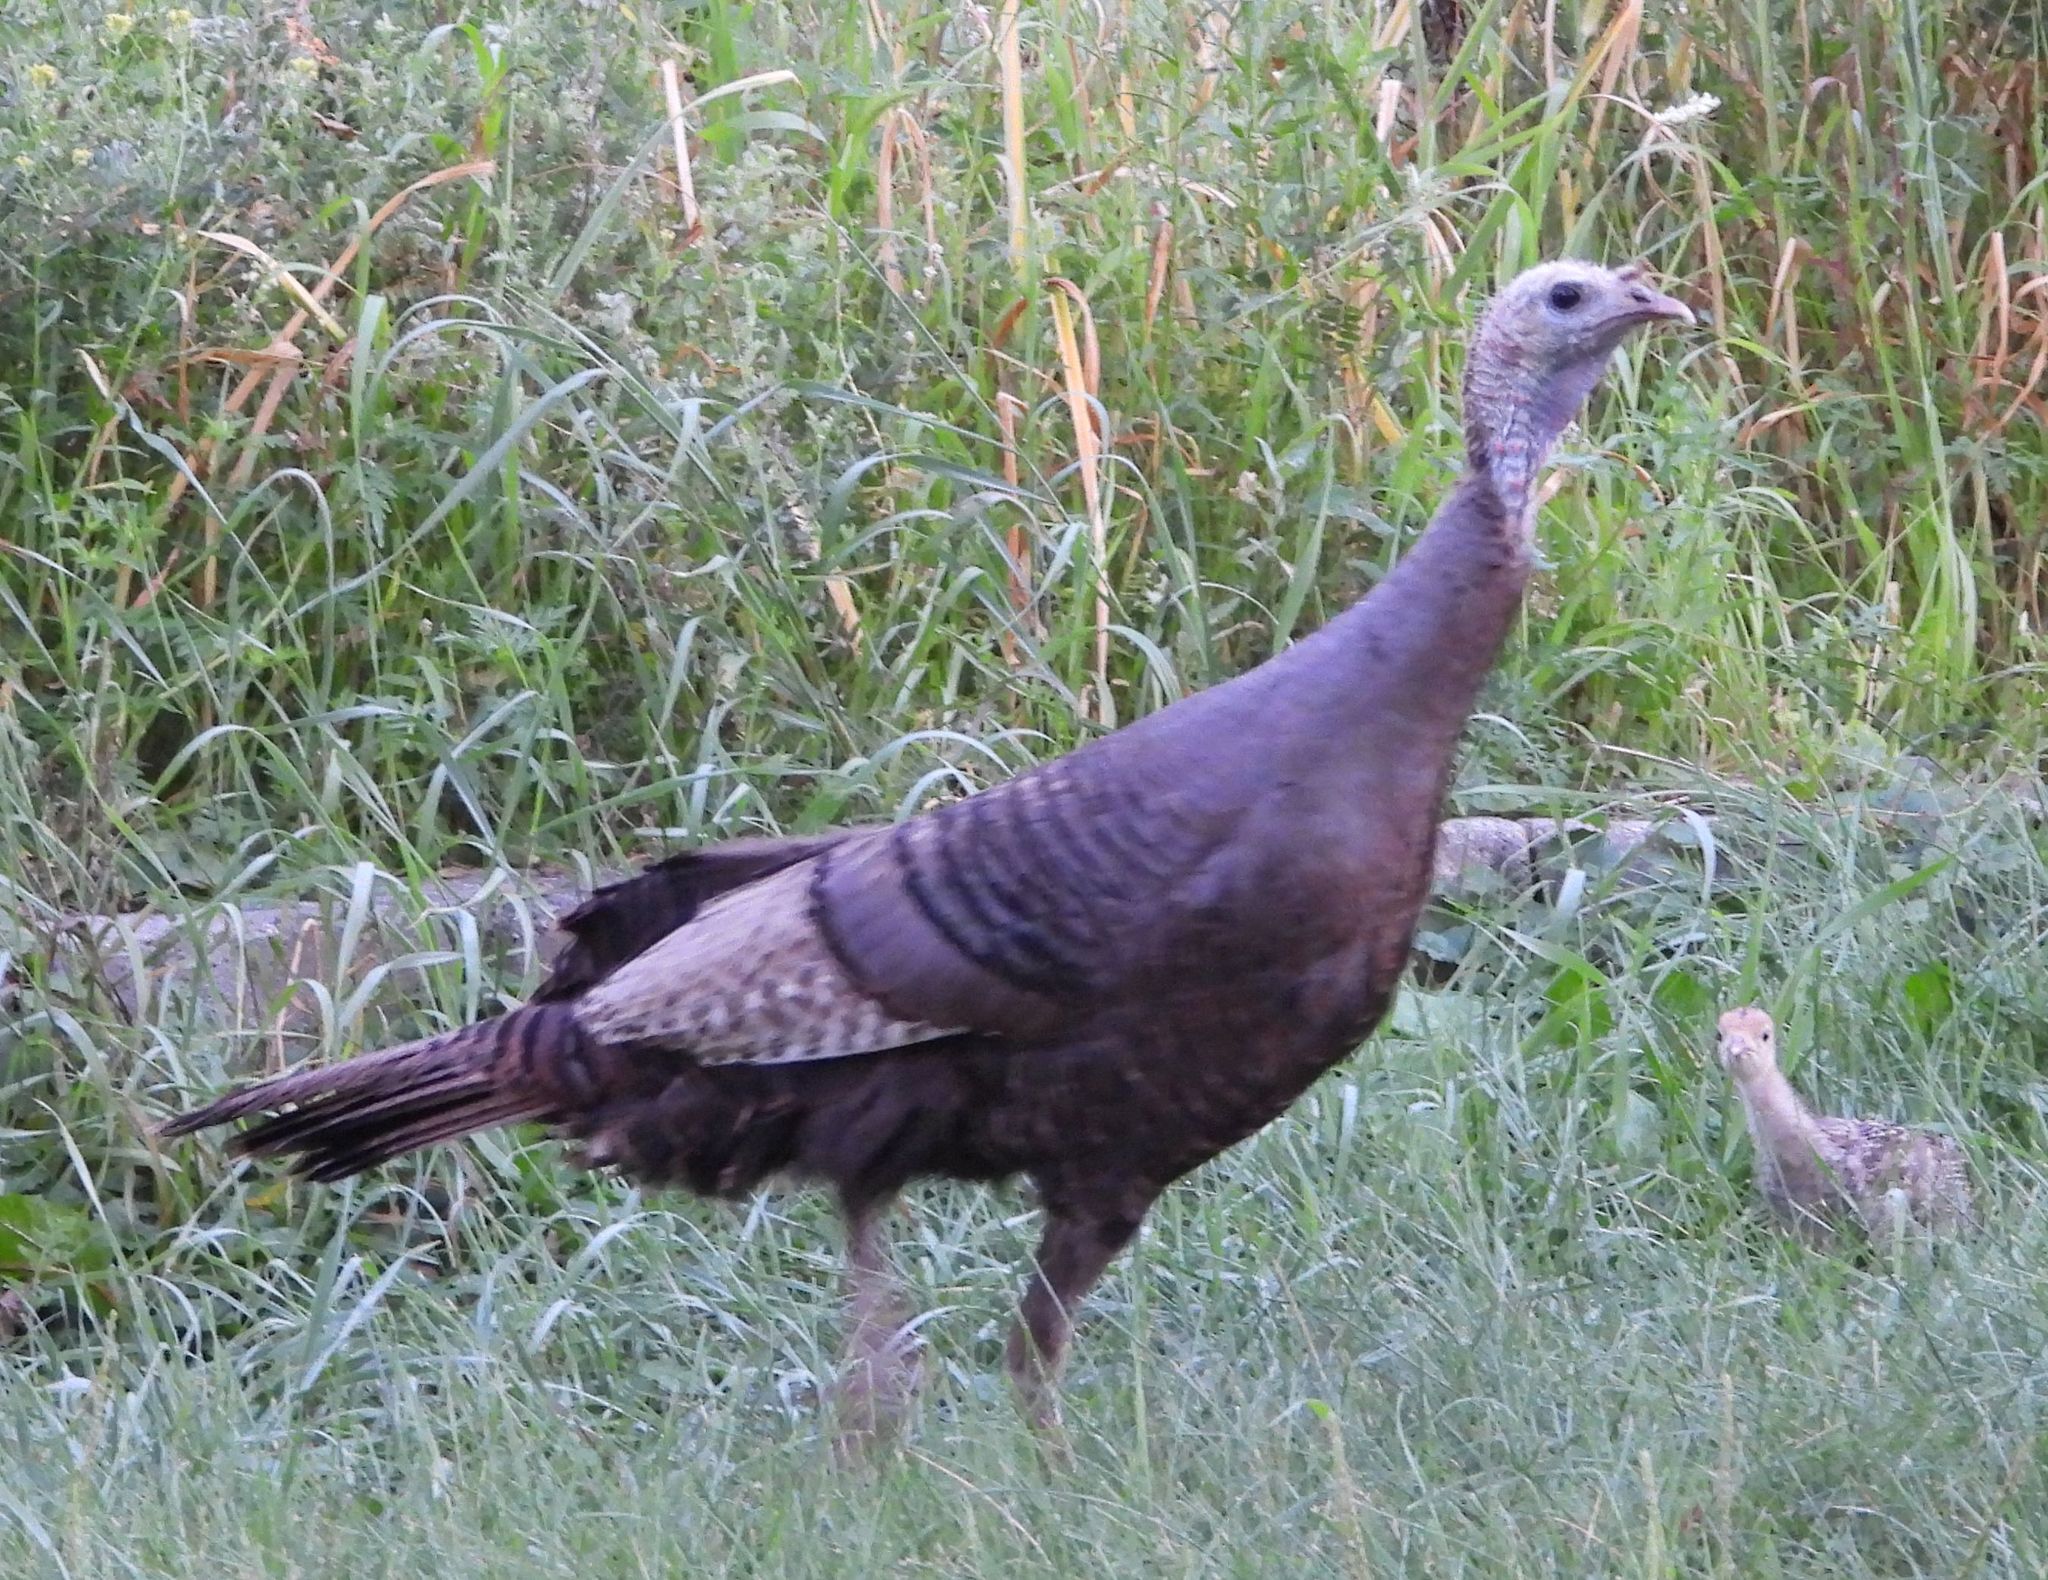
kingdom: Animalia
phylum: Chordata
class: Aves
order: Galliformes
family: Phasianidae
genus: Meleagris
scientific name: Meleagris gallopavo
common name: Wild turkey
